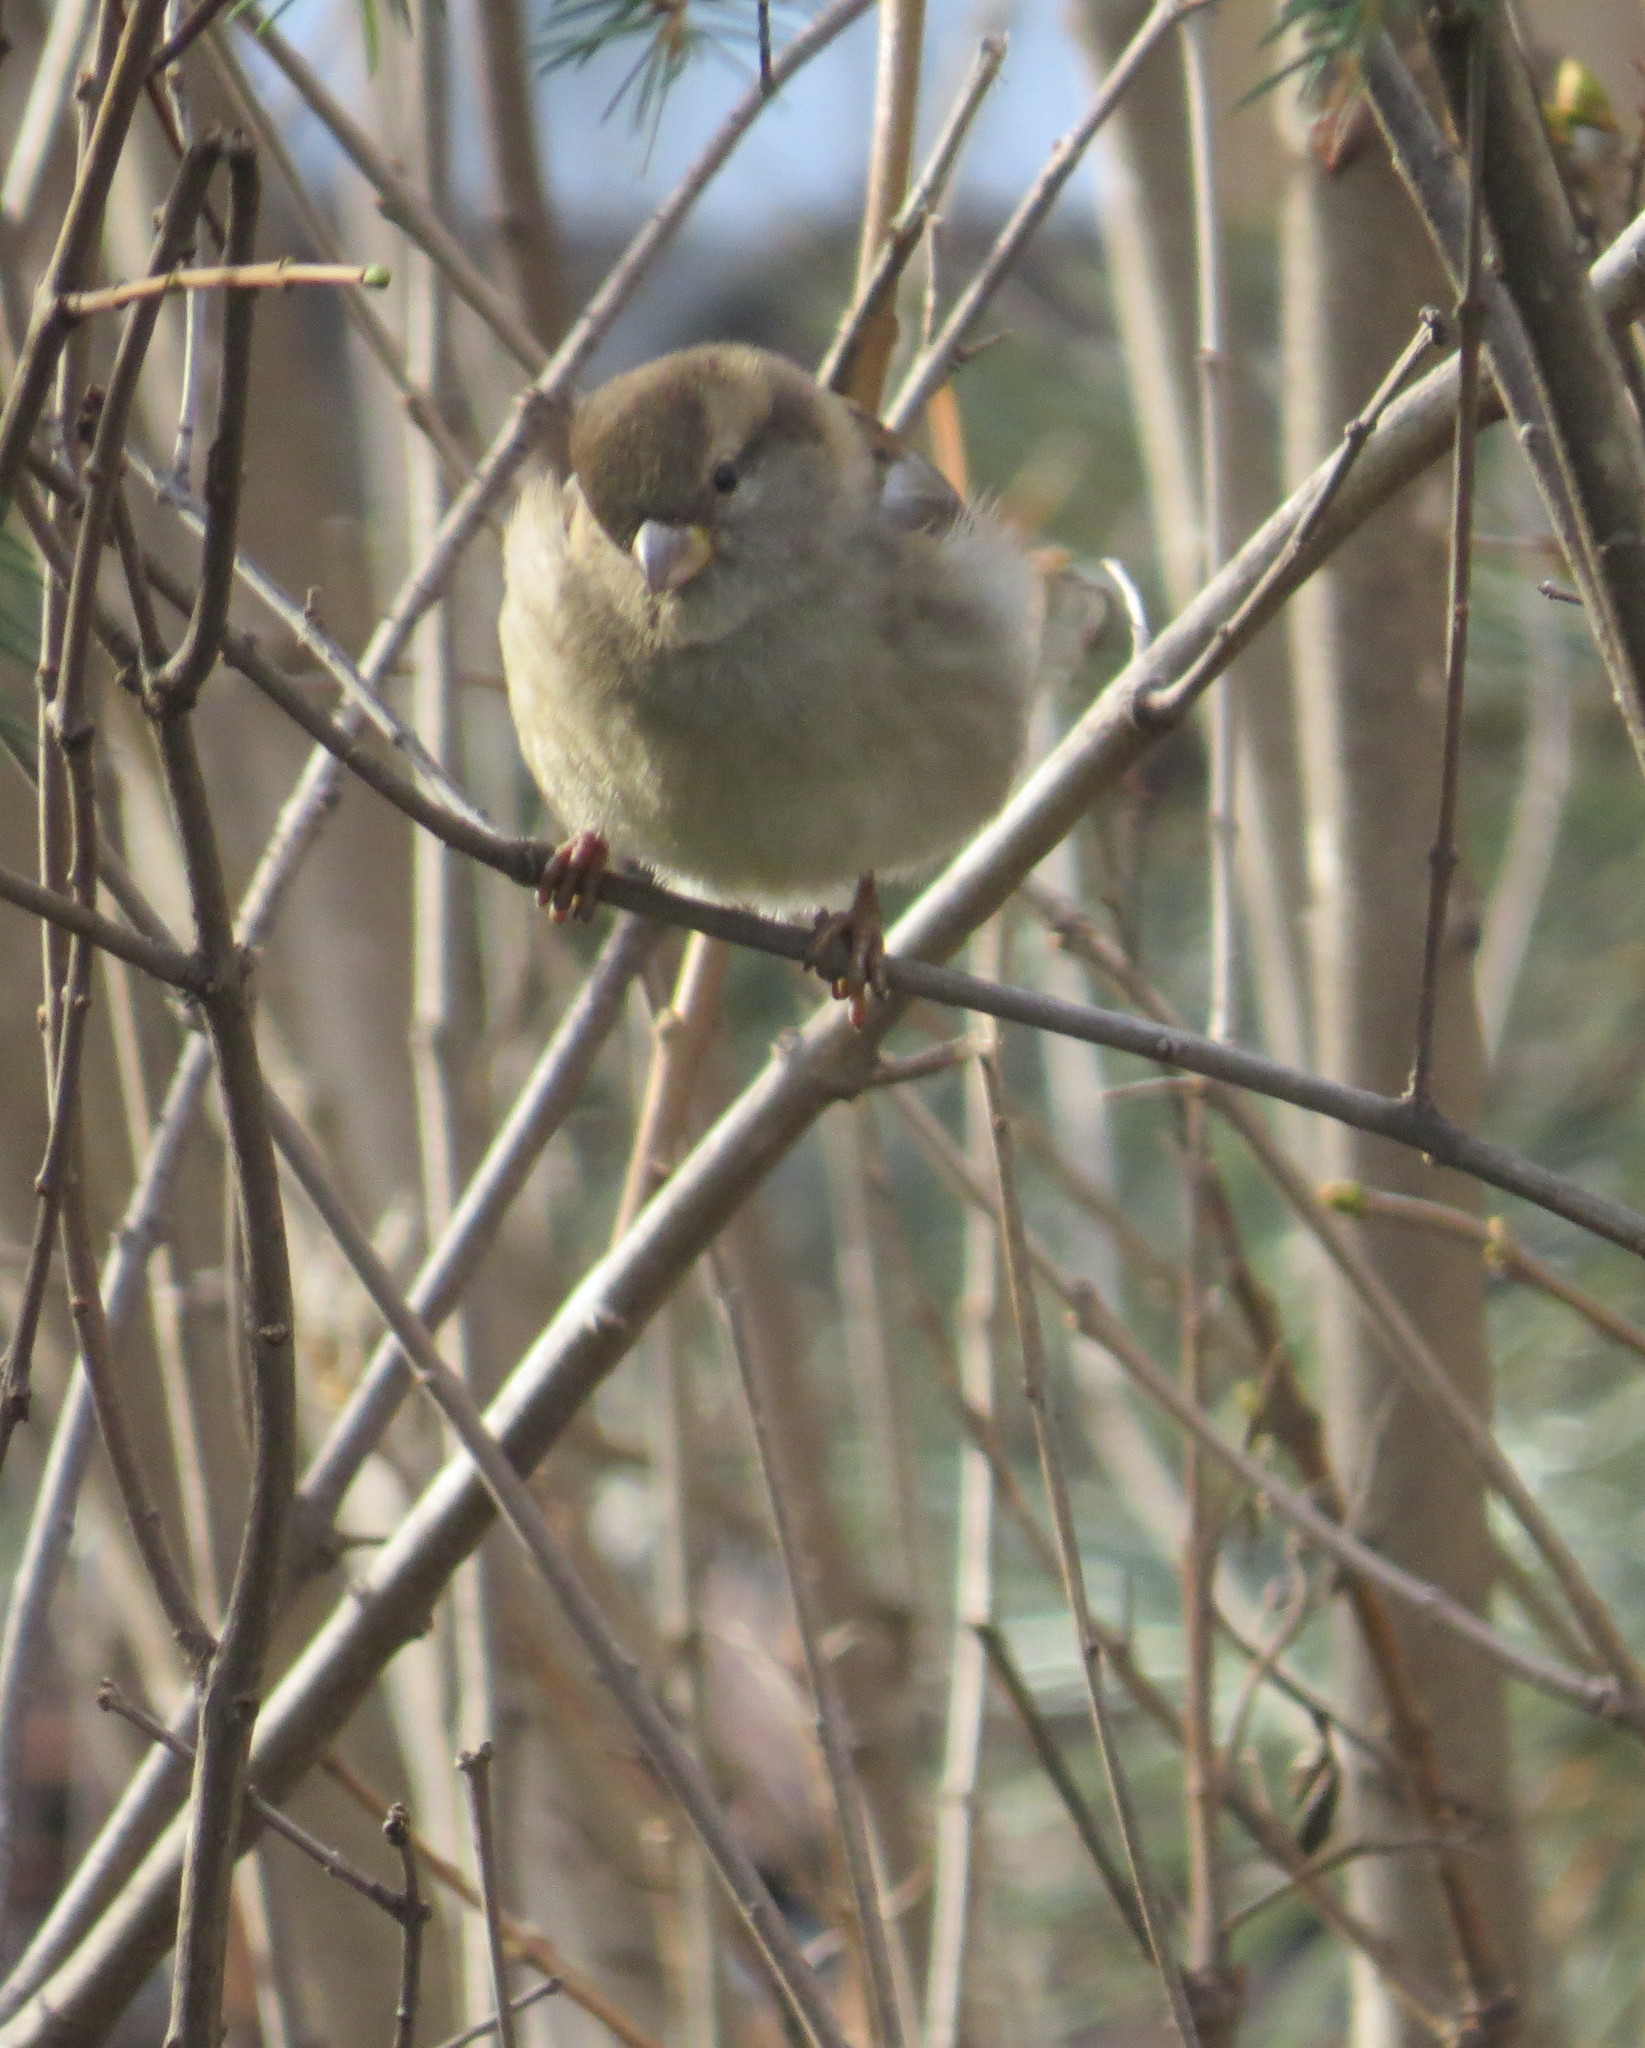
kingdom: Animalia
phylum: Chordata
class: Aves
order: Passeriformes
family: Passeridae
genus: Passer
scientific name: Passer domesticus
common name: House sparrow
